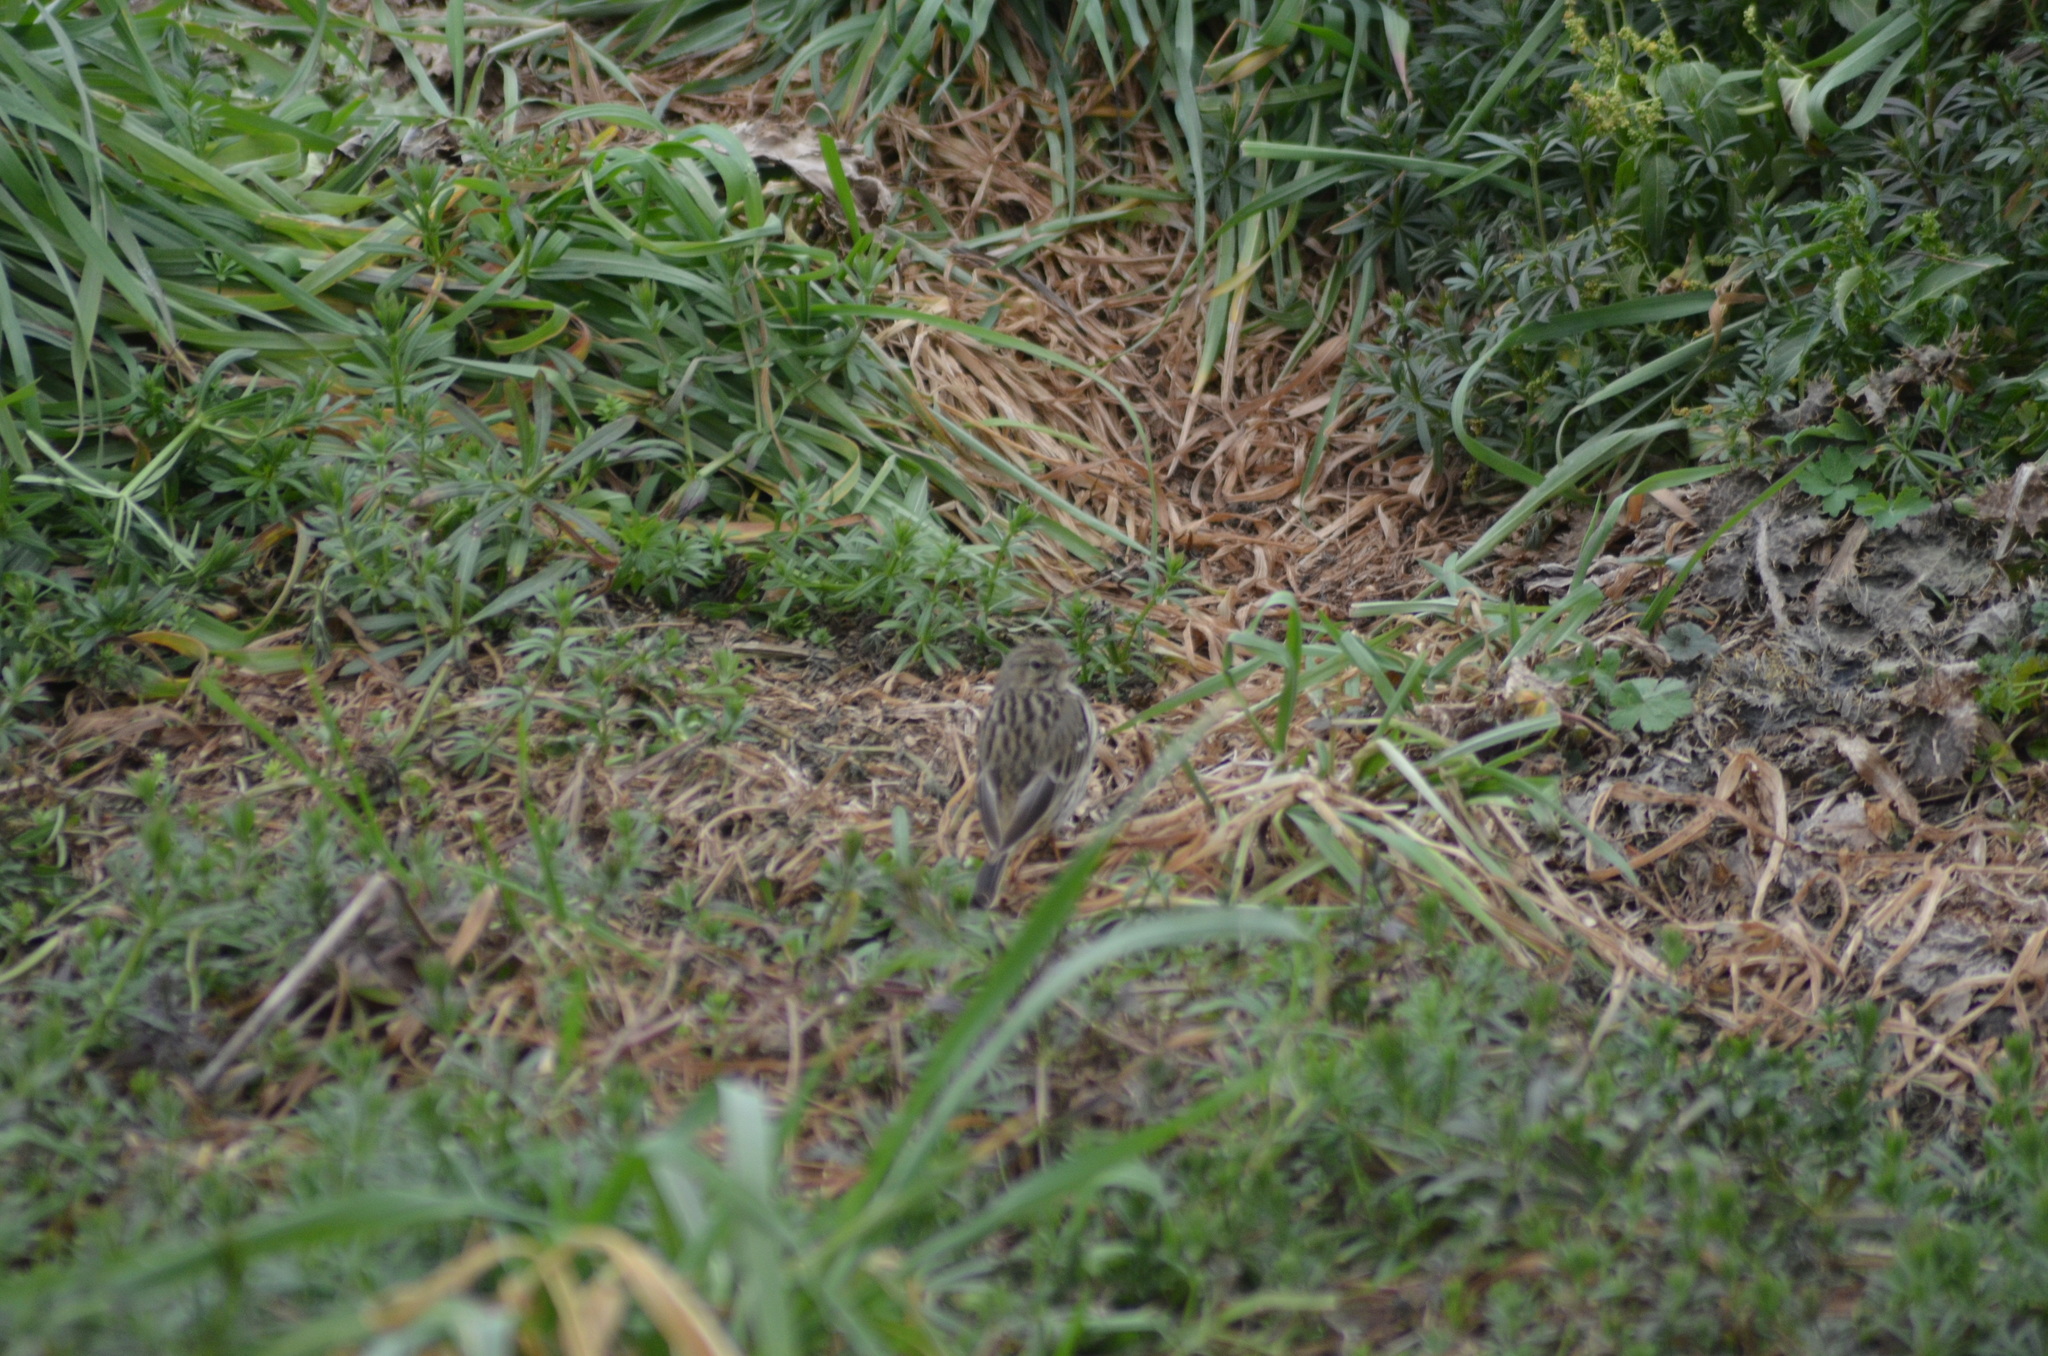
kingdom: Animalia
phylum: Chordata
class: Aves
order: Passeriformes
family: Motacillidae
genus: Anthus
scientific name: Anthus pratensis
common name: Meadow pipit
